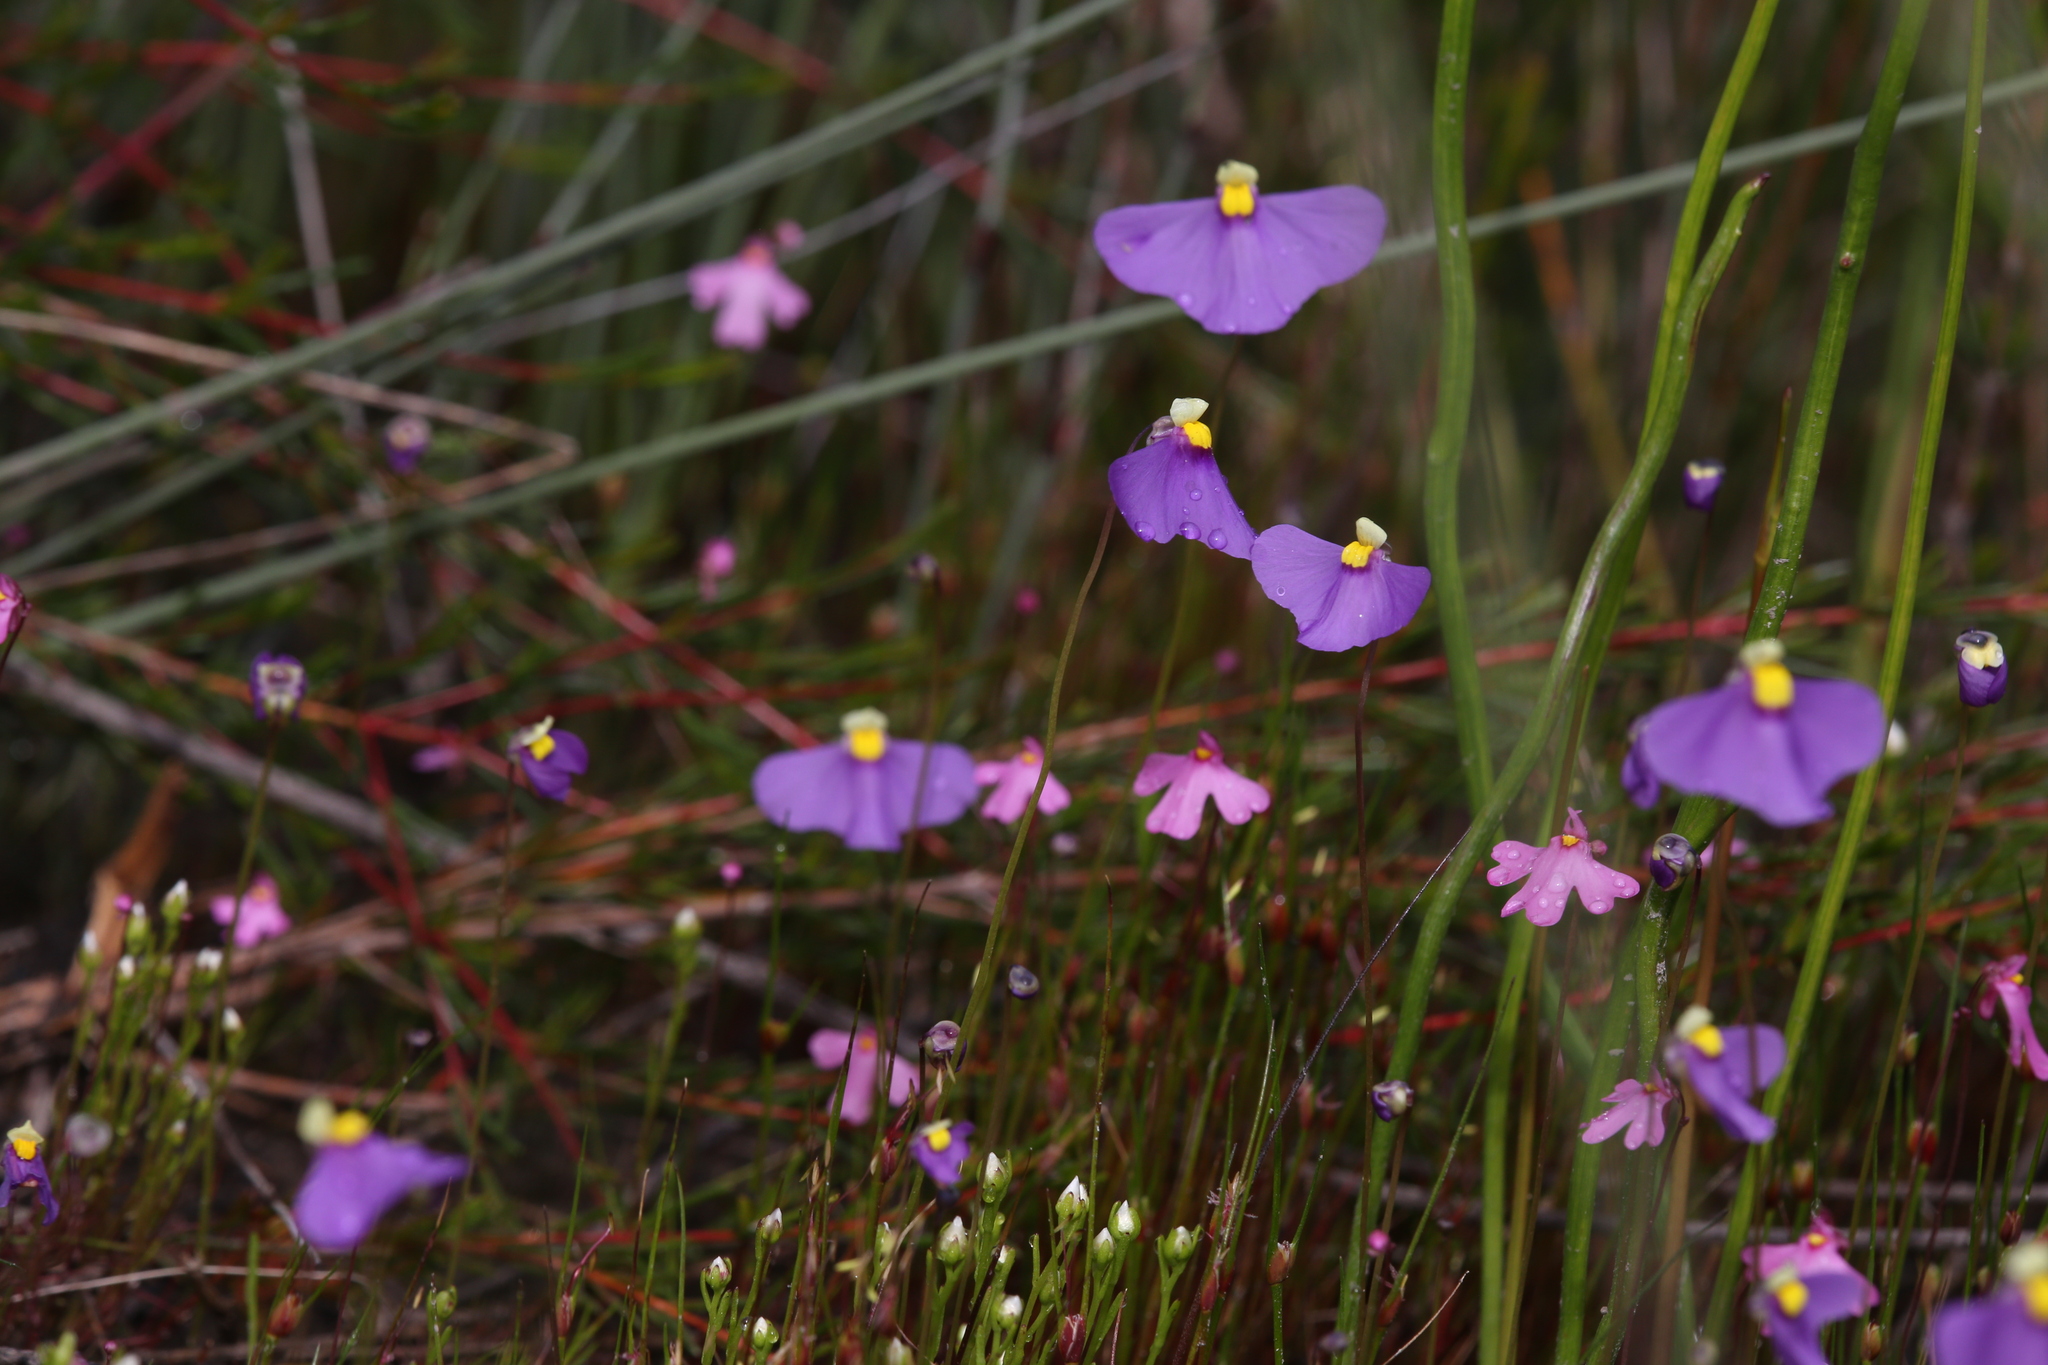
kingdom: Plantae
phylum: Tracheophyta
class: Magnoliopsida
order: Lamiales
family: Lentibulariaceae
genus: Utricularia
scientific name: Utricularia multifida
